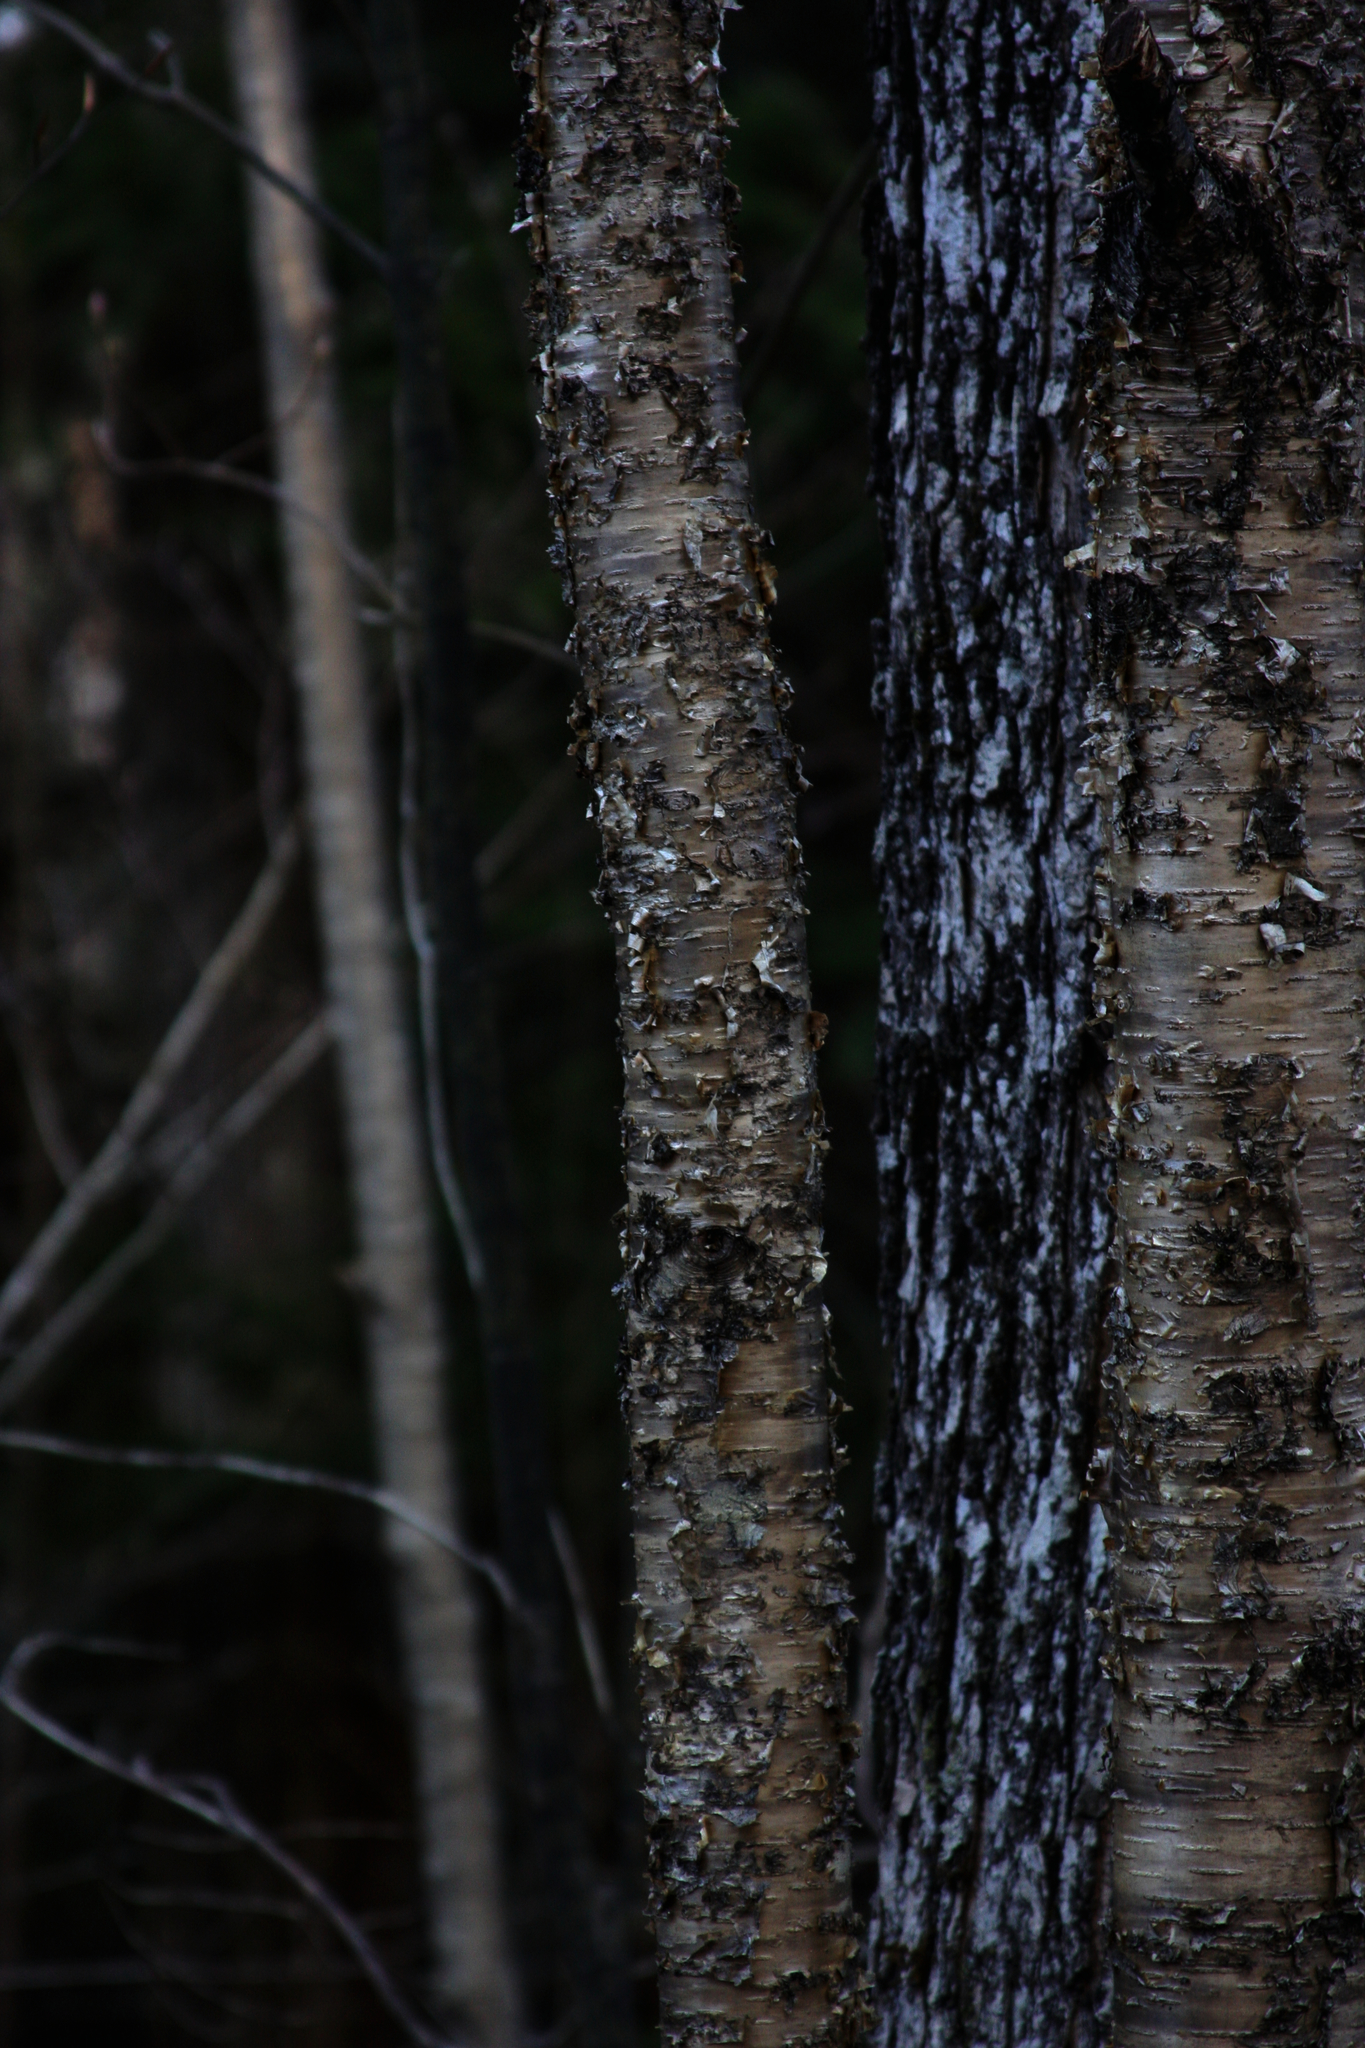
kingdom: Plantae
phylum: Tracheophyta
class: Magnoliopsida
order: Fagales
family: Betulaceae
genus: Betula
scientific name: Betula alleghaniensis
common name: Yellow birch
